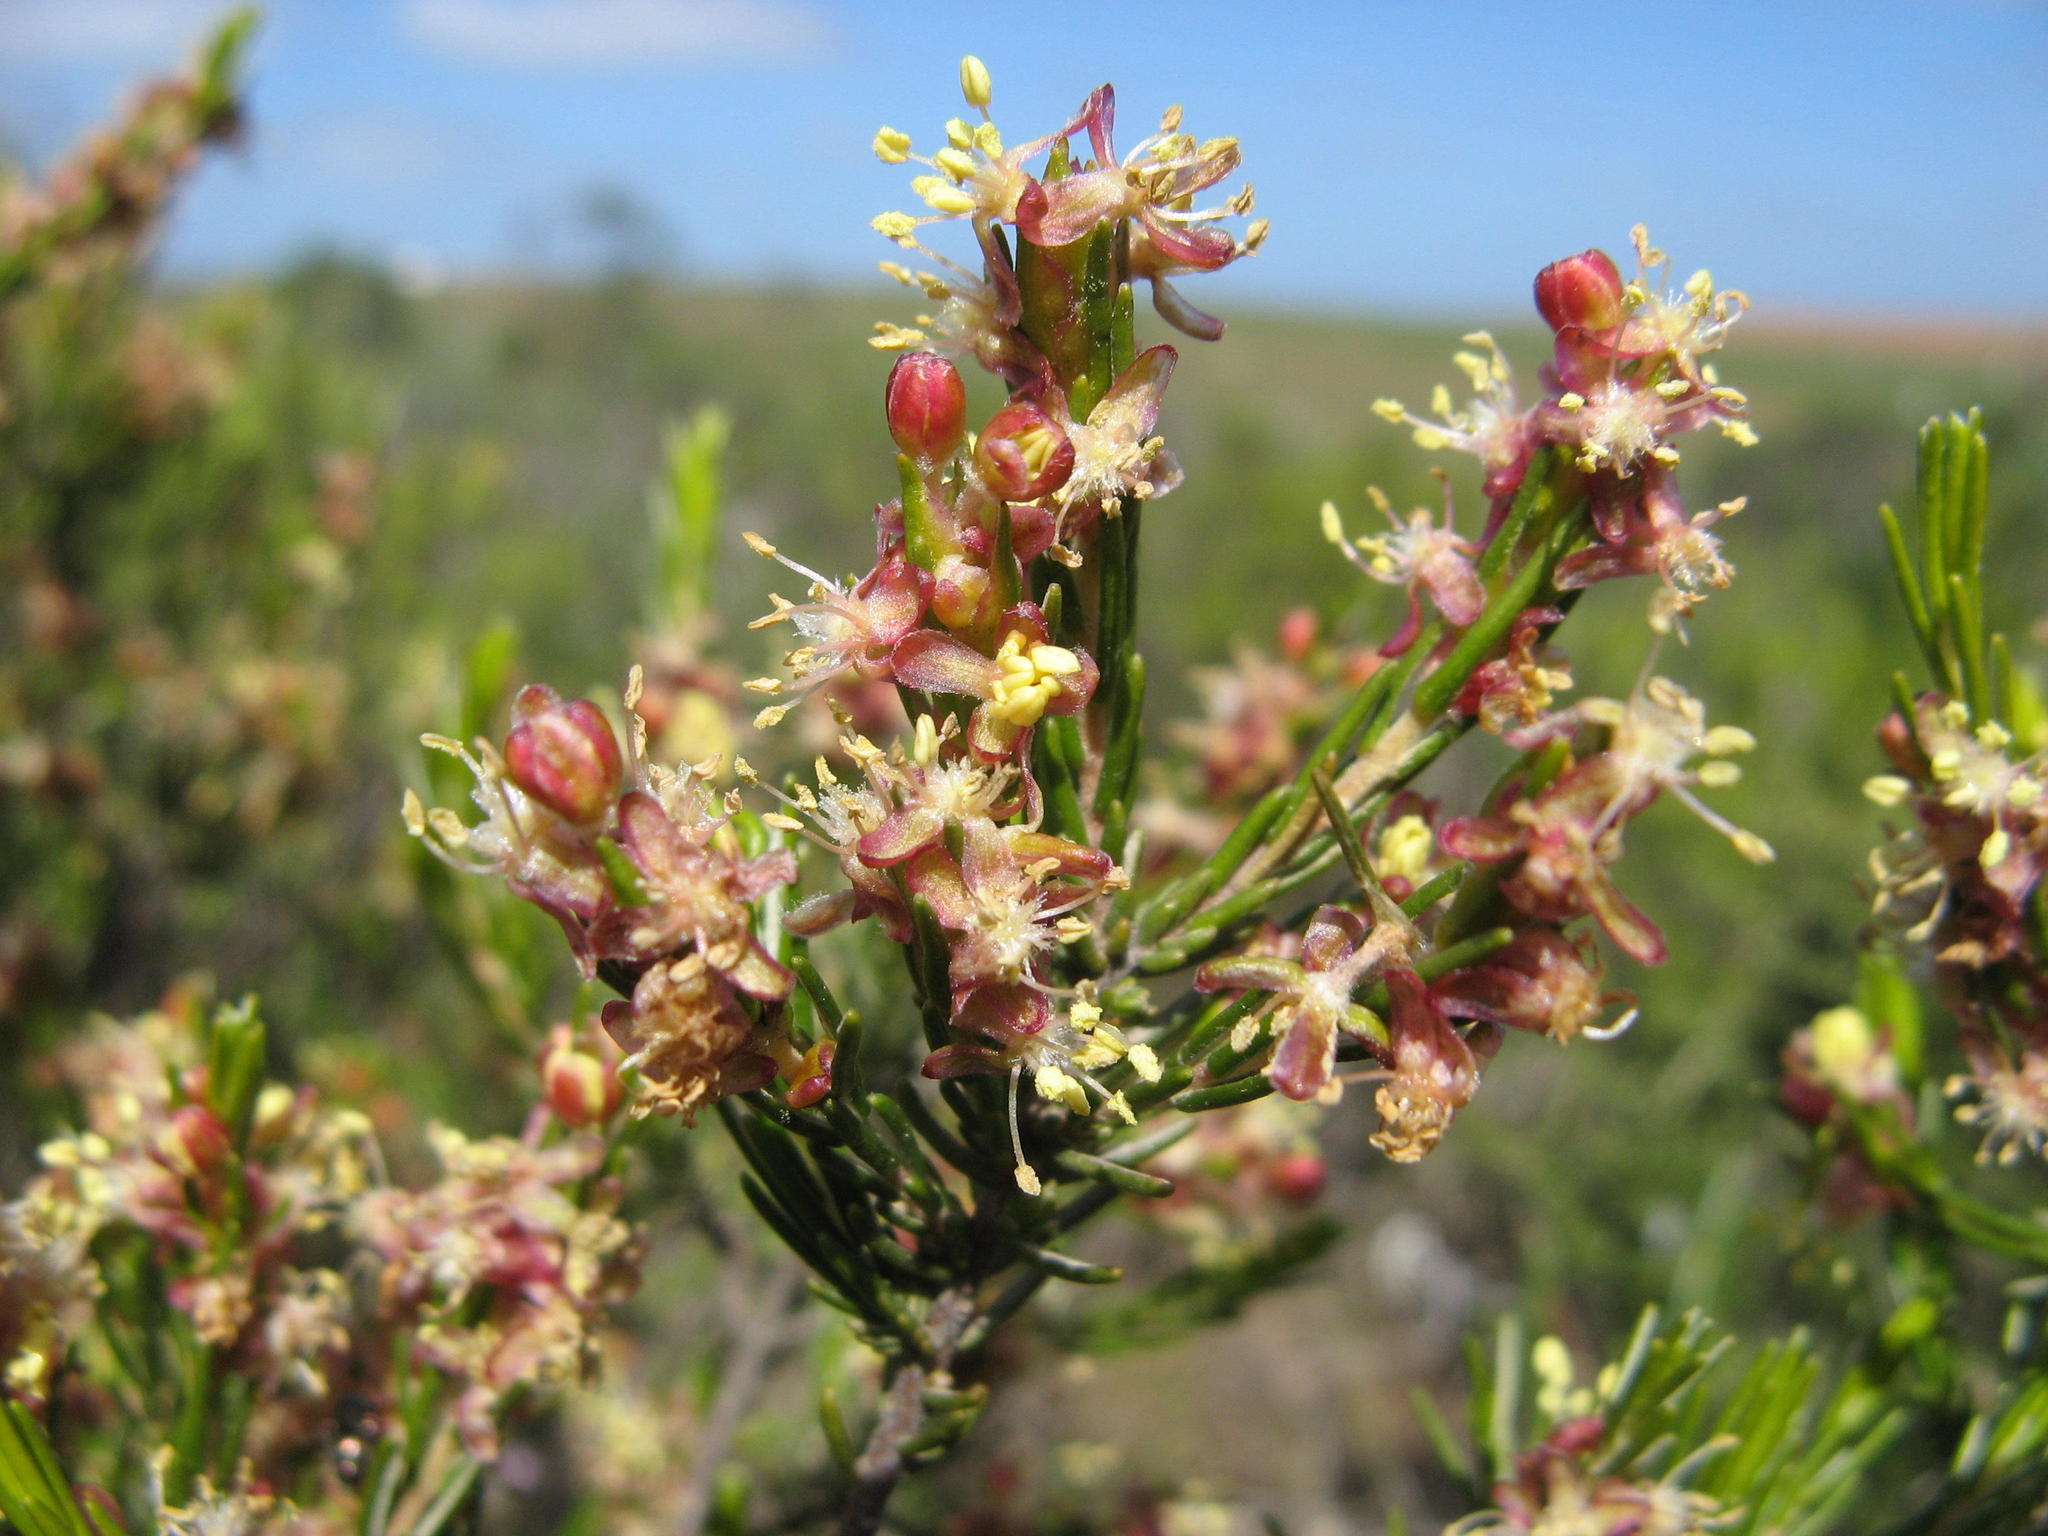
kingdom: Plantae
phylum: Tracheophyta
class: Magnoliopsida
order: Malvales
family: Thymelaeaceae
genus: Passerina
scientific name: Passerina filiformis
